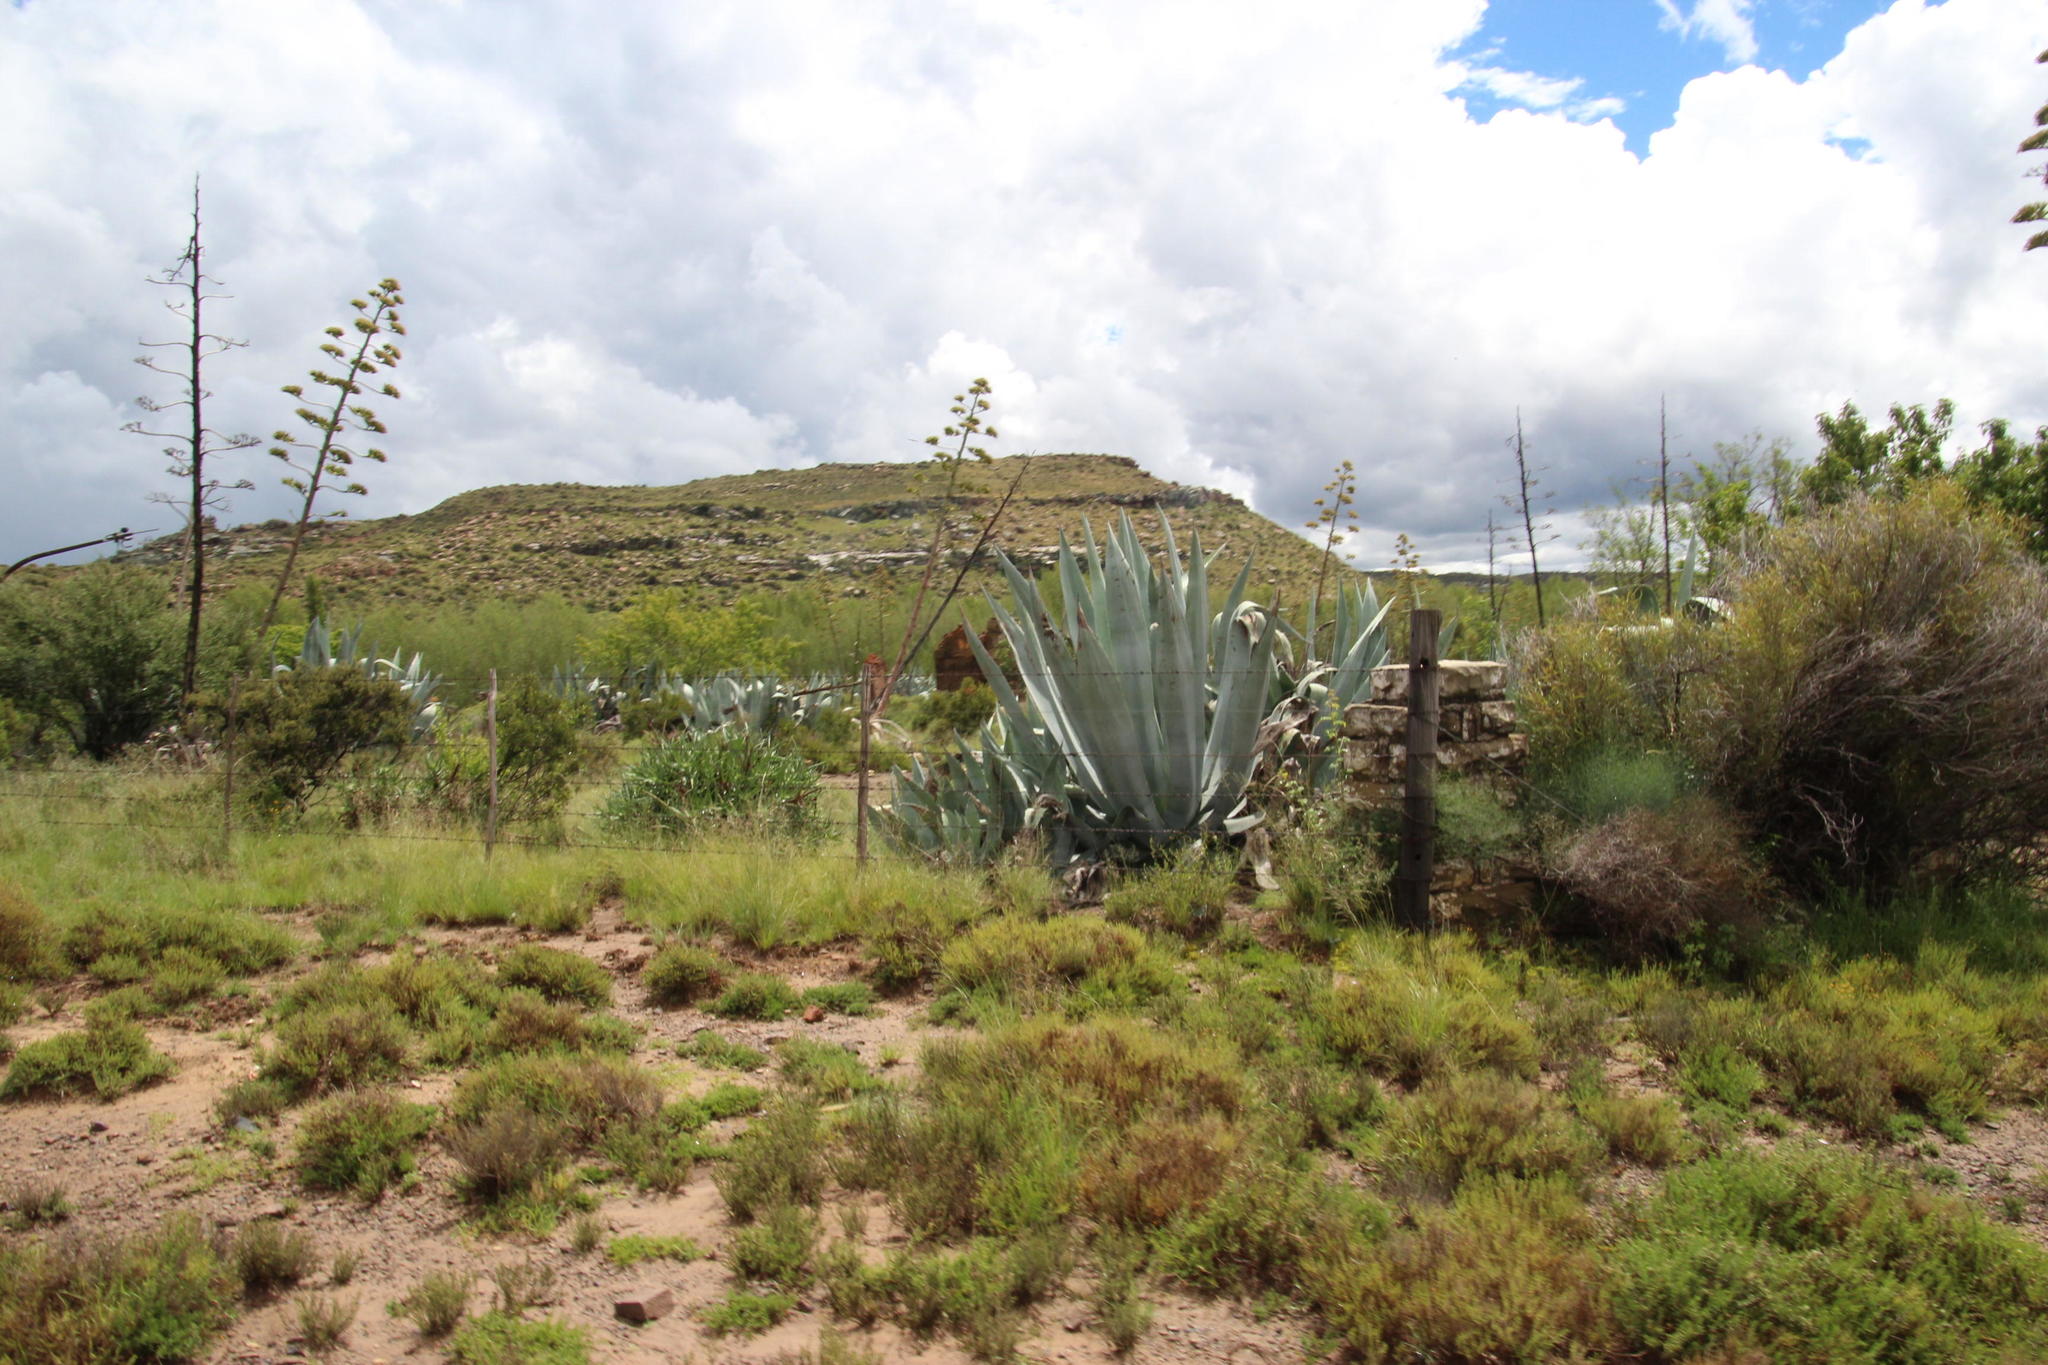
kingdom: Plantae
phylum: Tracheophyta
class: Liliopsida
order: Asparagales
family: Asparagaceae
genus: Agave
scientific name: Agave americana
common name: Centuryplant
